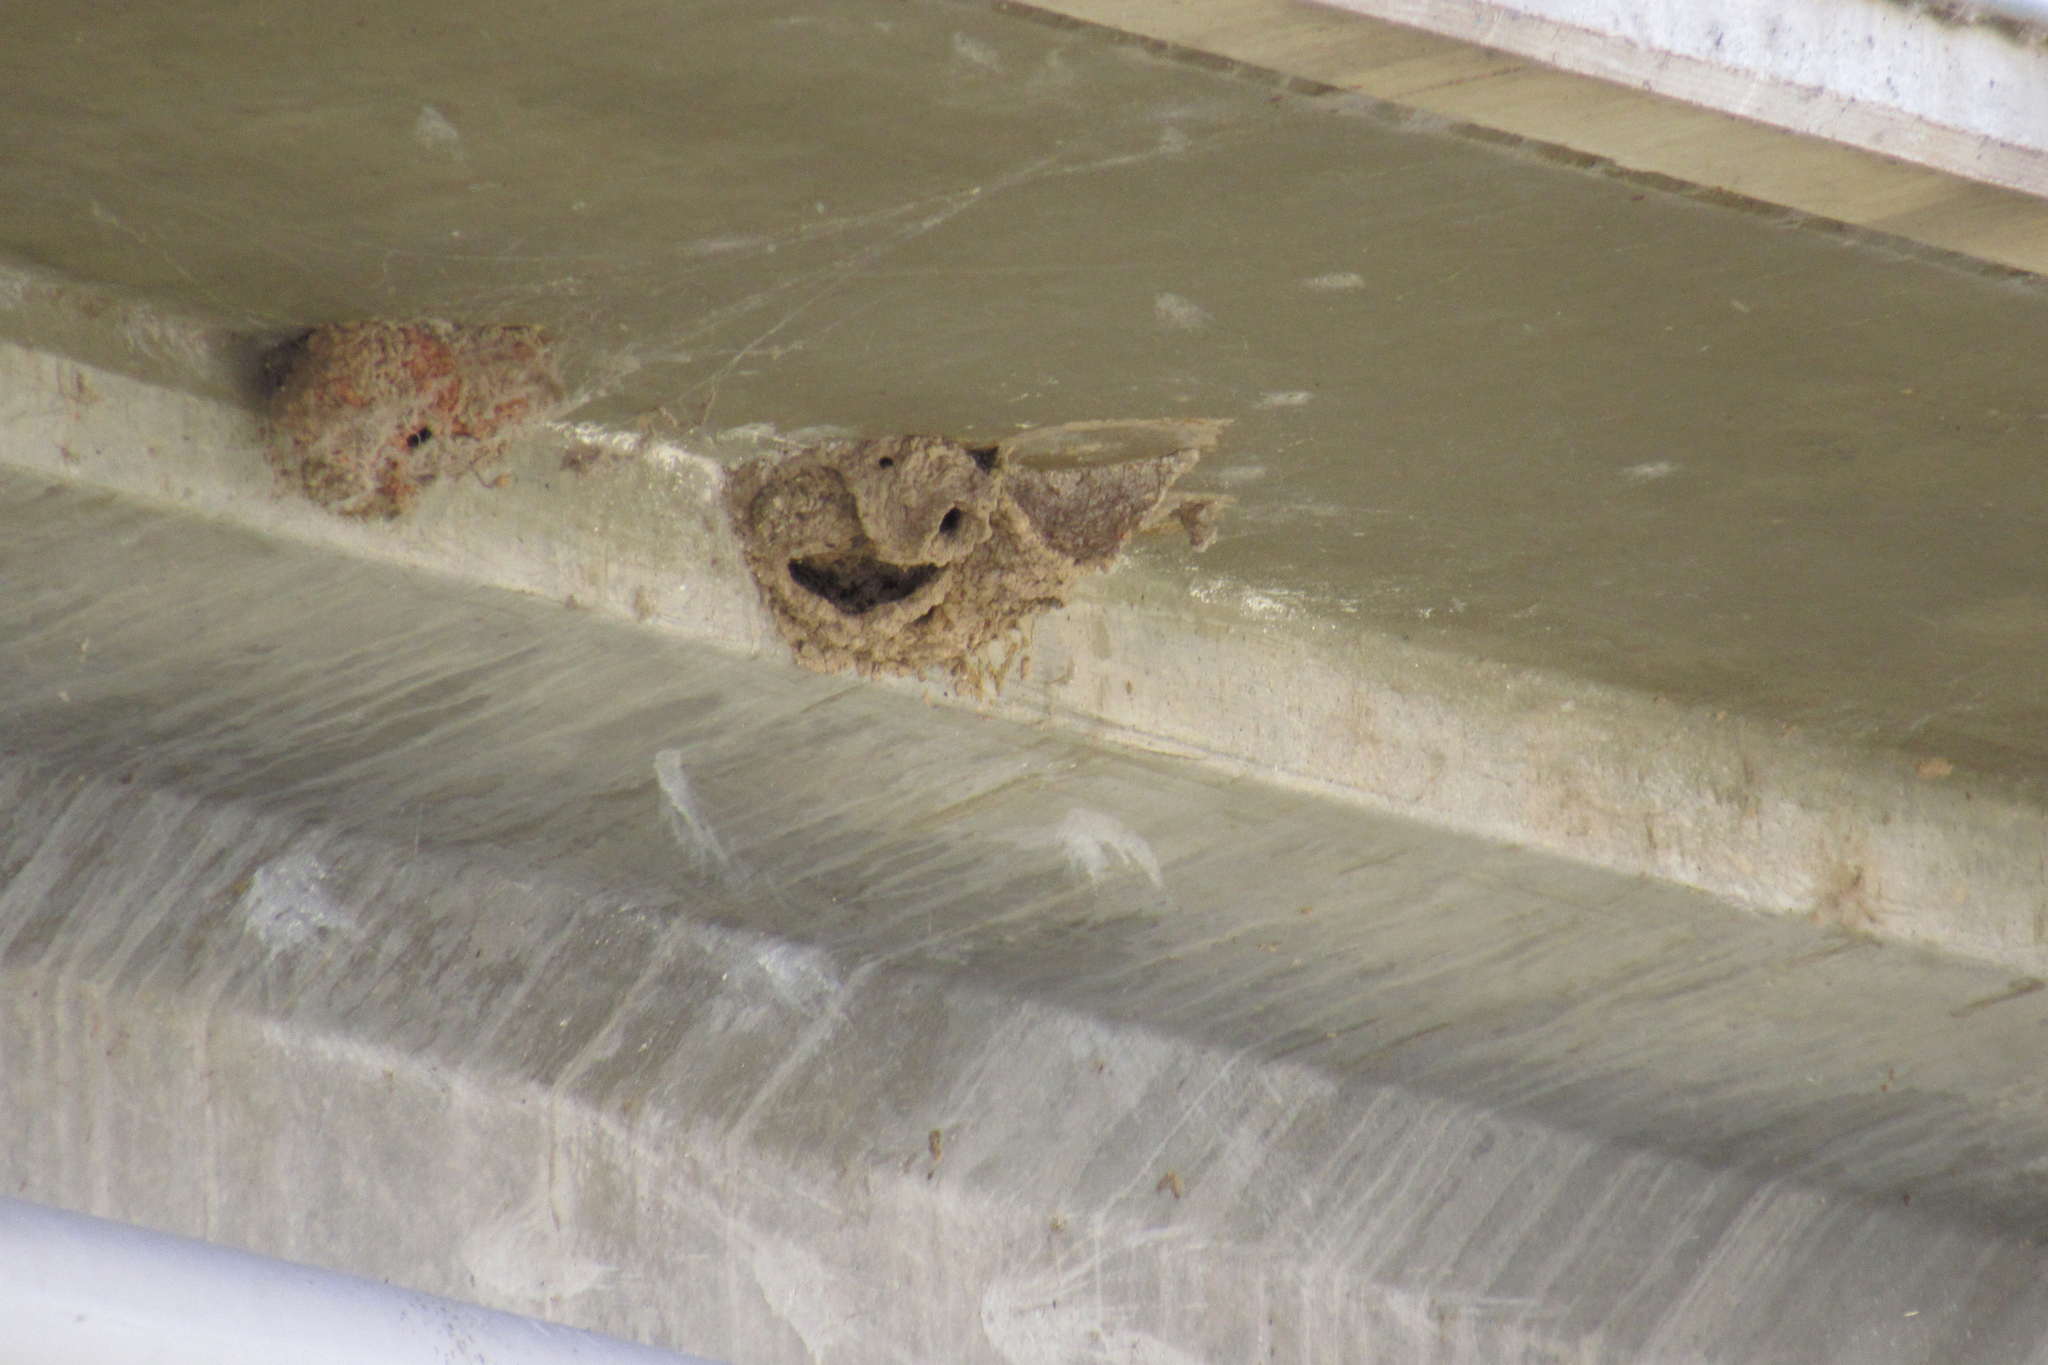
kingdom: Animalia
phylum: Chordata
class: Aves
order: Passeriformes
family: Hirundinidae
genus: Petrochelidon
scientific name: Petrochelidon pyrrhonota
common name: American cliff swallow
